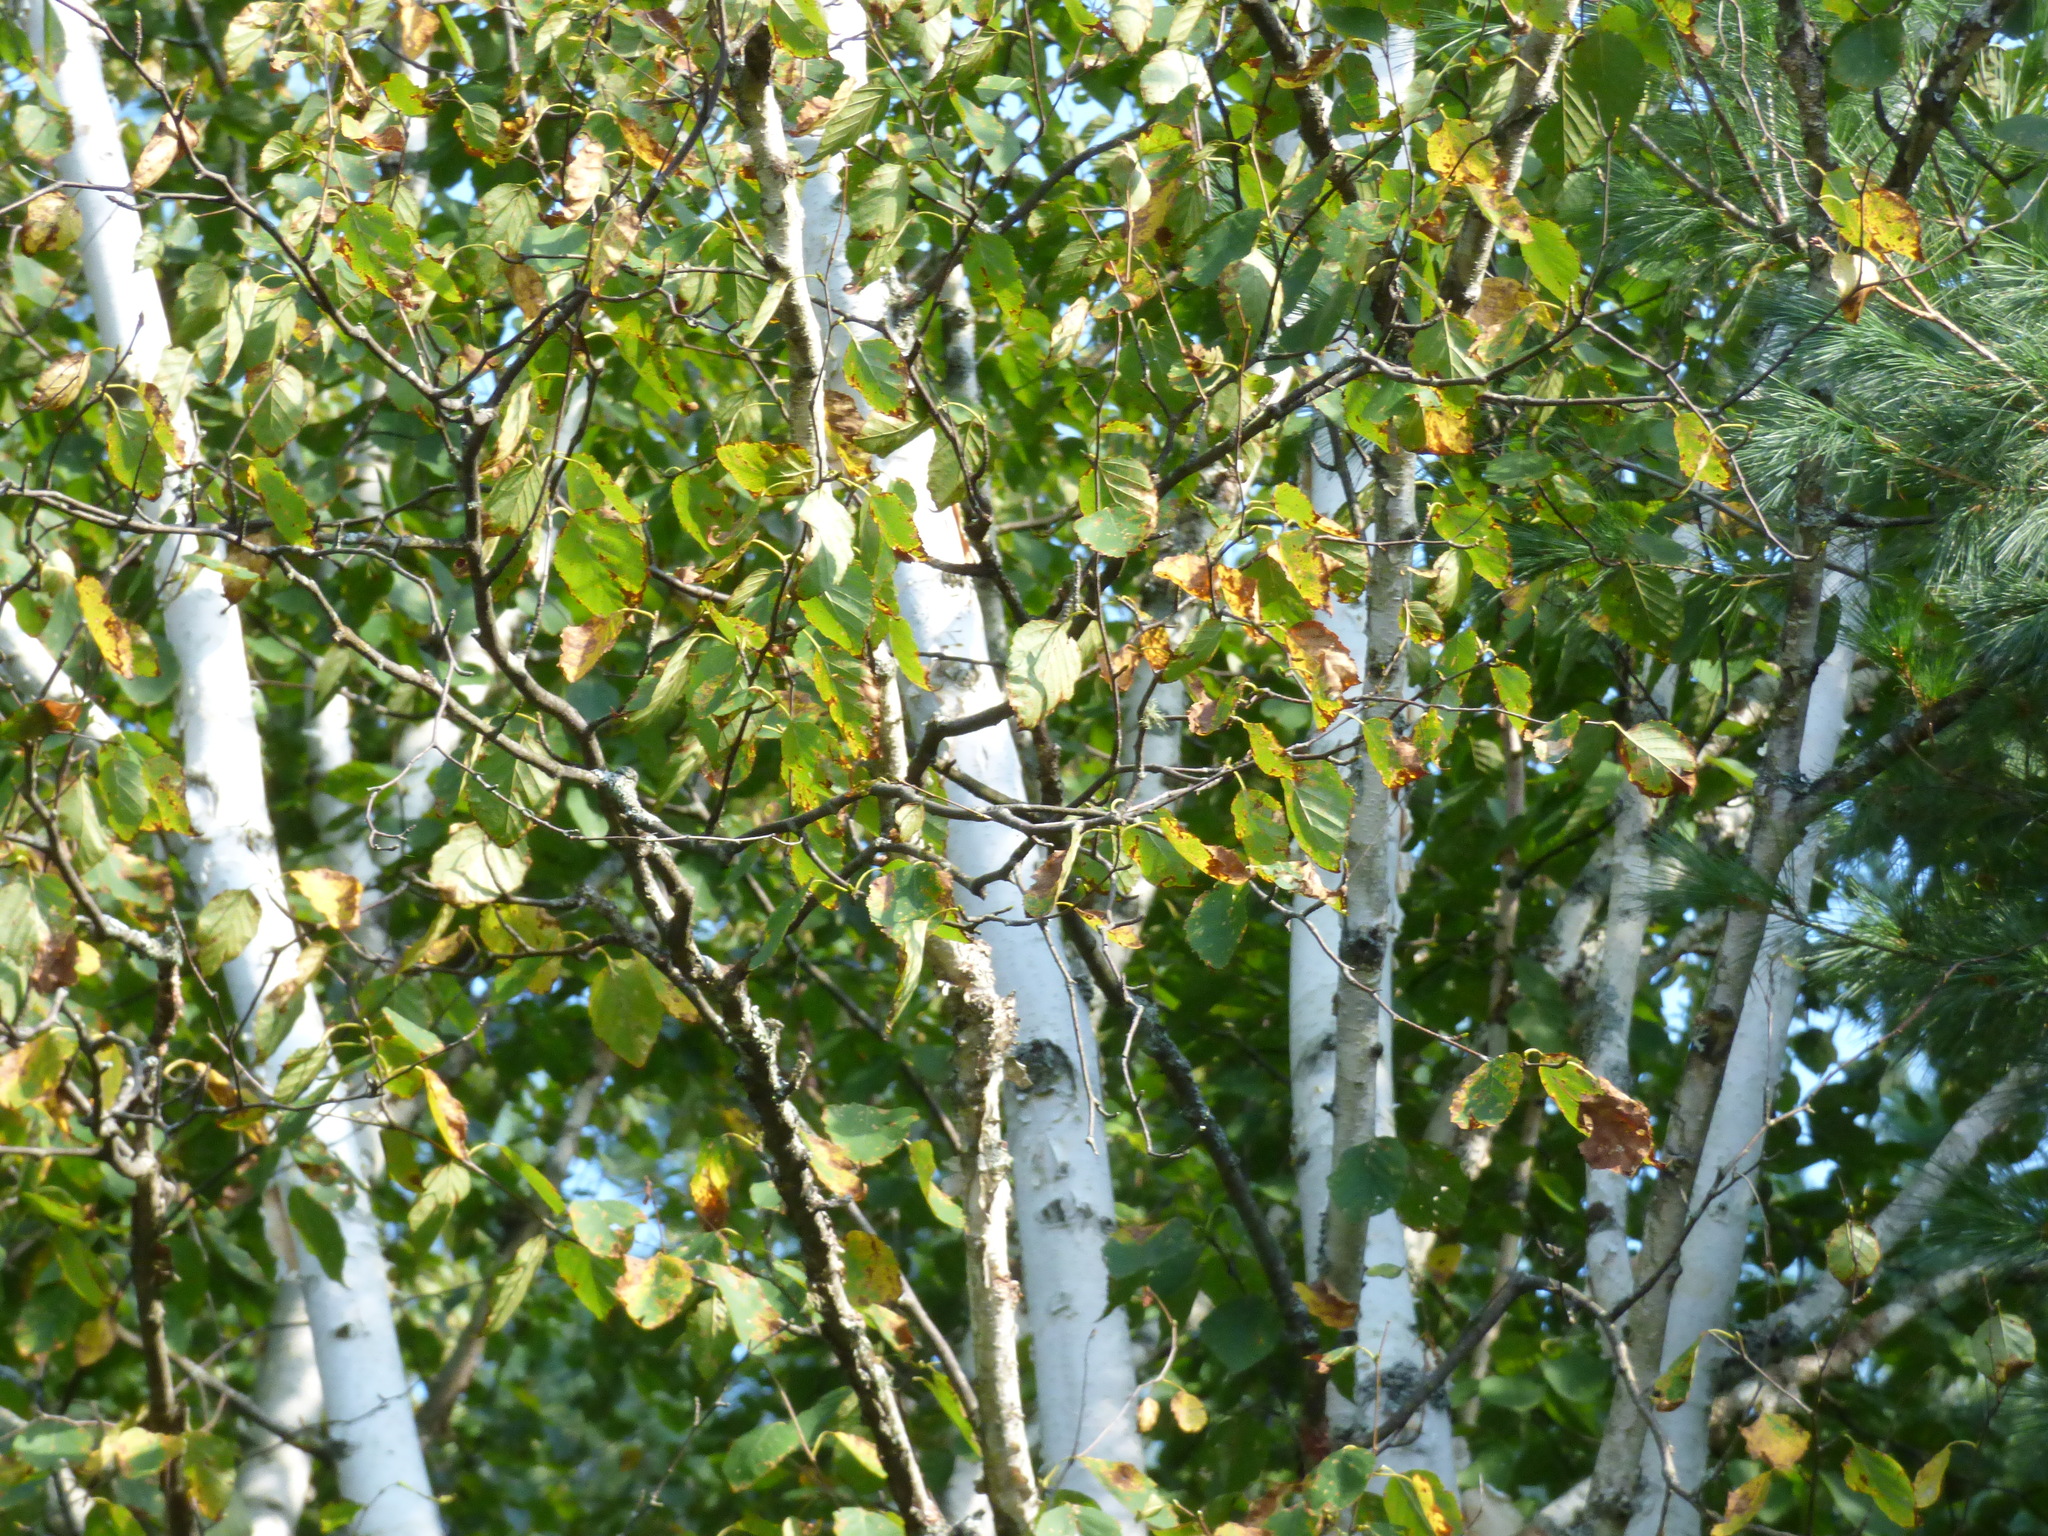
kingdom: Plantae
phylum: Tracheophyta
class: Magnoliopsida
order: Fagales
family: Betulaceae
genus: Betula
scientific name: Betula papyrifera
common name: Paper birch
